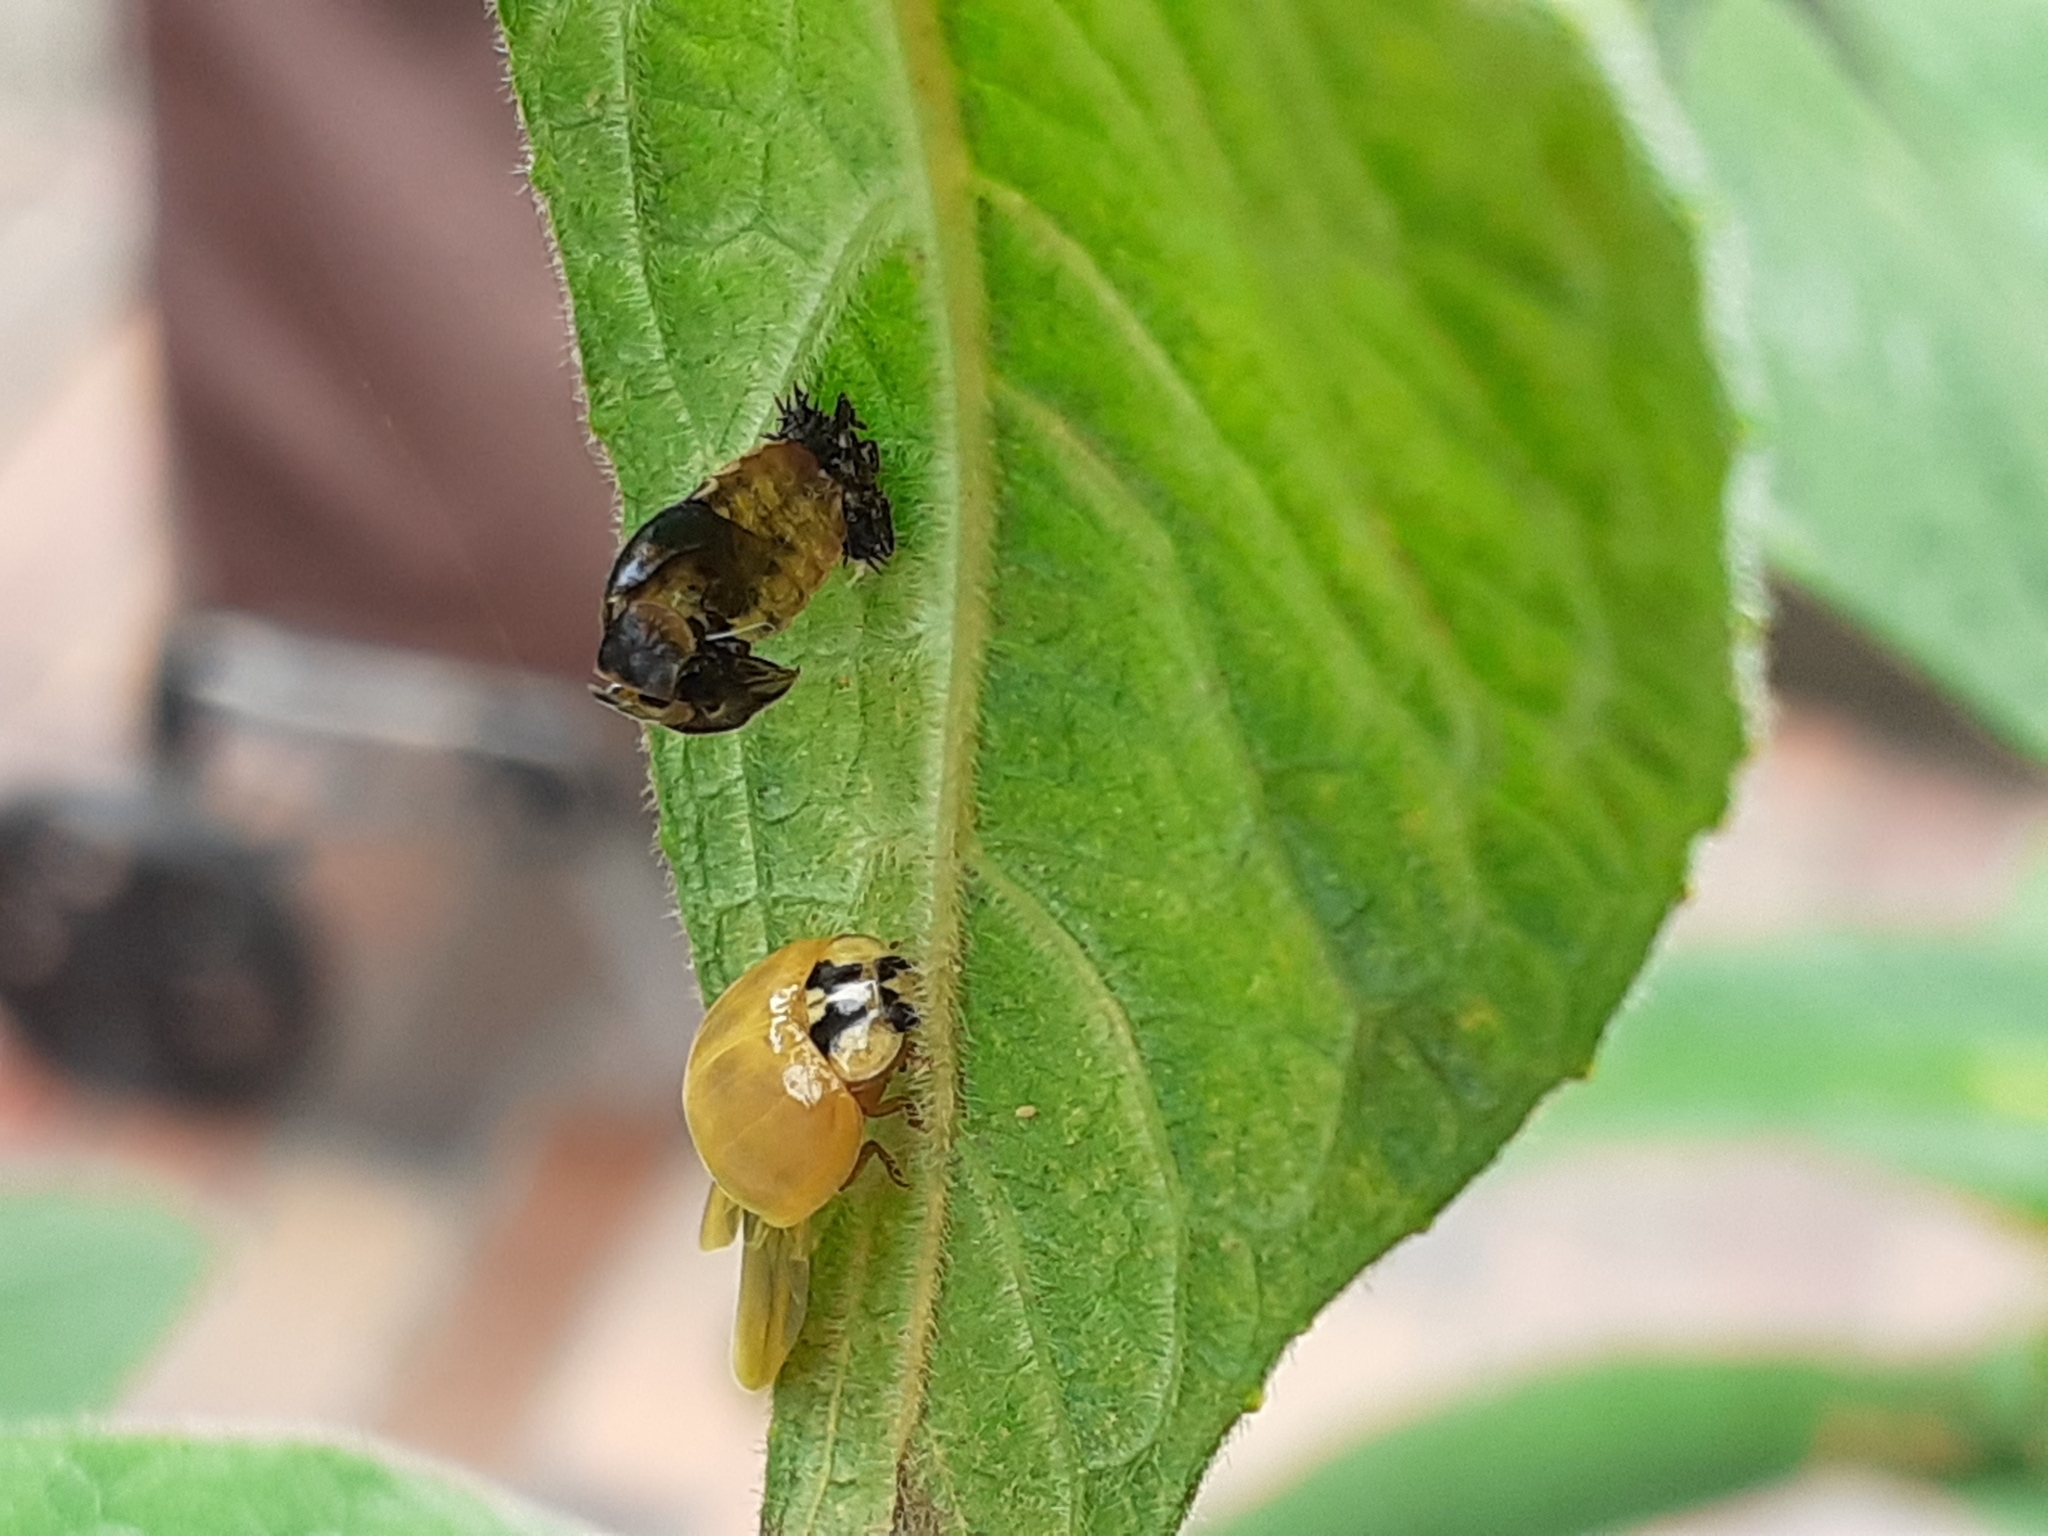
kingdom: Animalia
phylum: Arthropoda
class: Insecta
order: Coleoptera
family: Coccinellidae
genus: Harmonia
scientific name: Harmonia axyridis
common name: Harlequin ladybird
